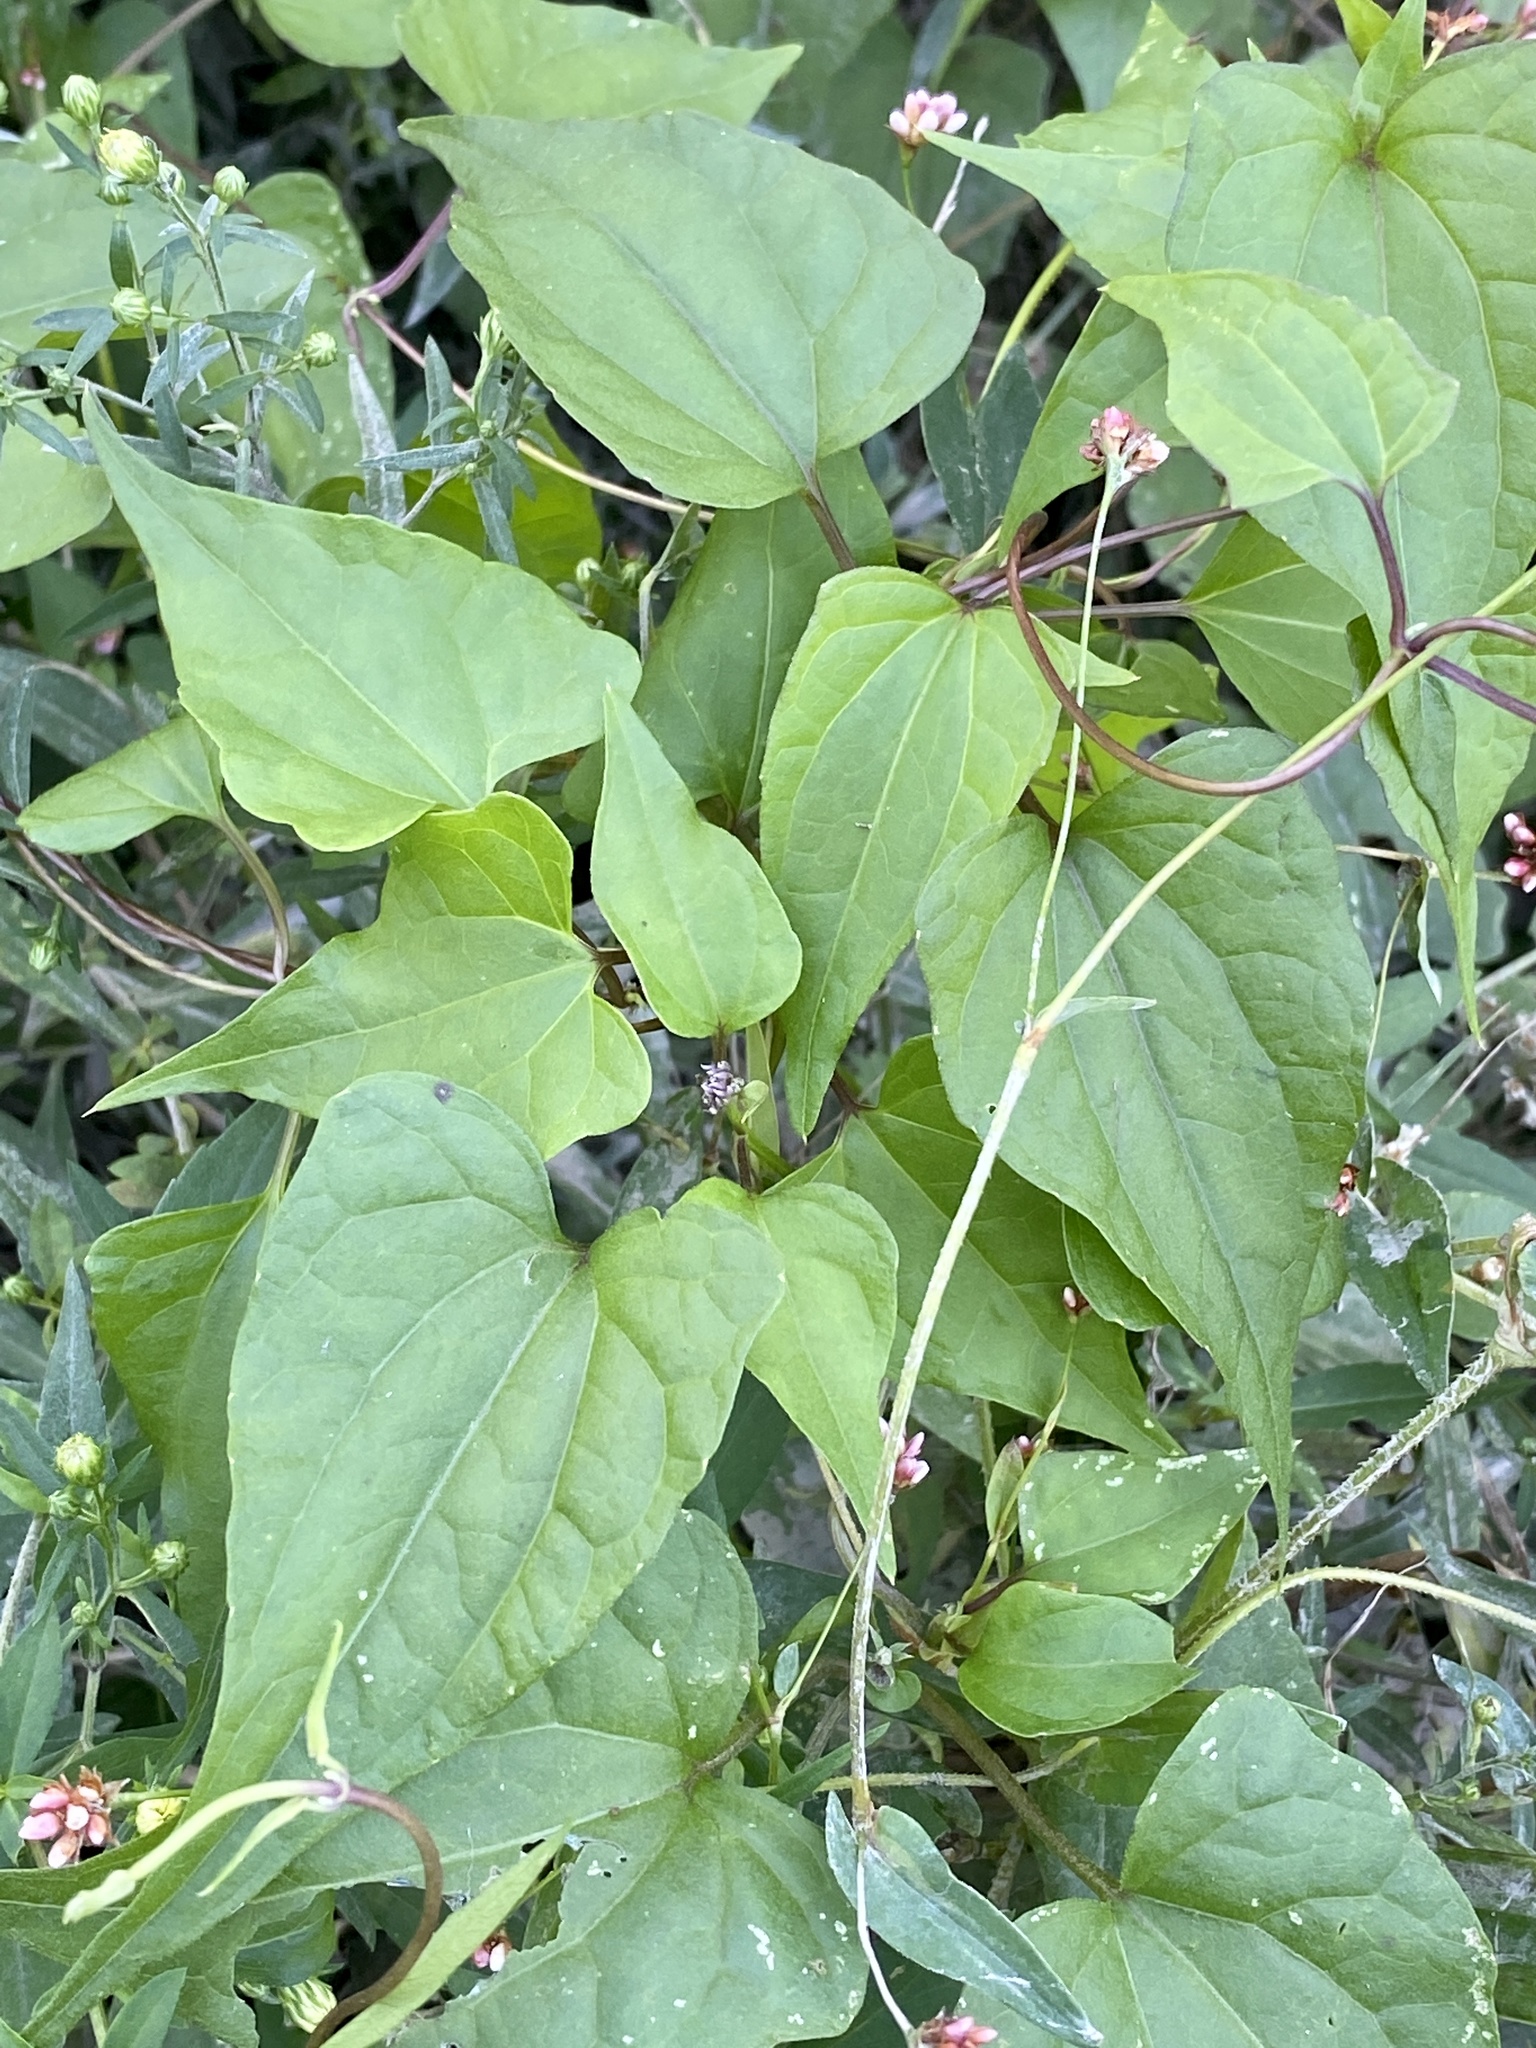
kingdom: Plantae
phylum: Tracheophyta
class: Magnoliopsida
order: Asterales
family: Asteraceae
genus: Mikania
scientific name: Mikania scandens
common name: Climbing hempvine
